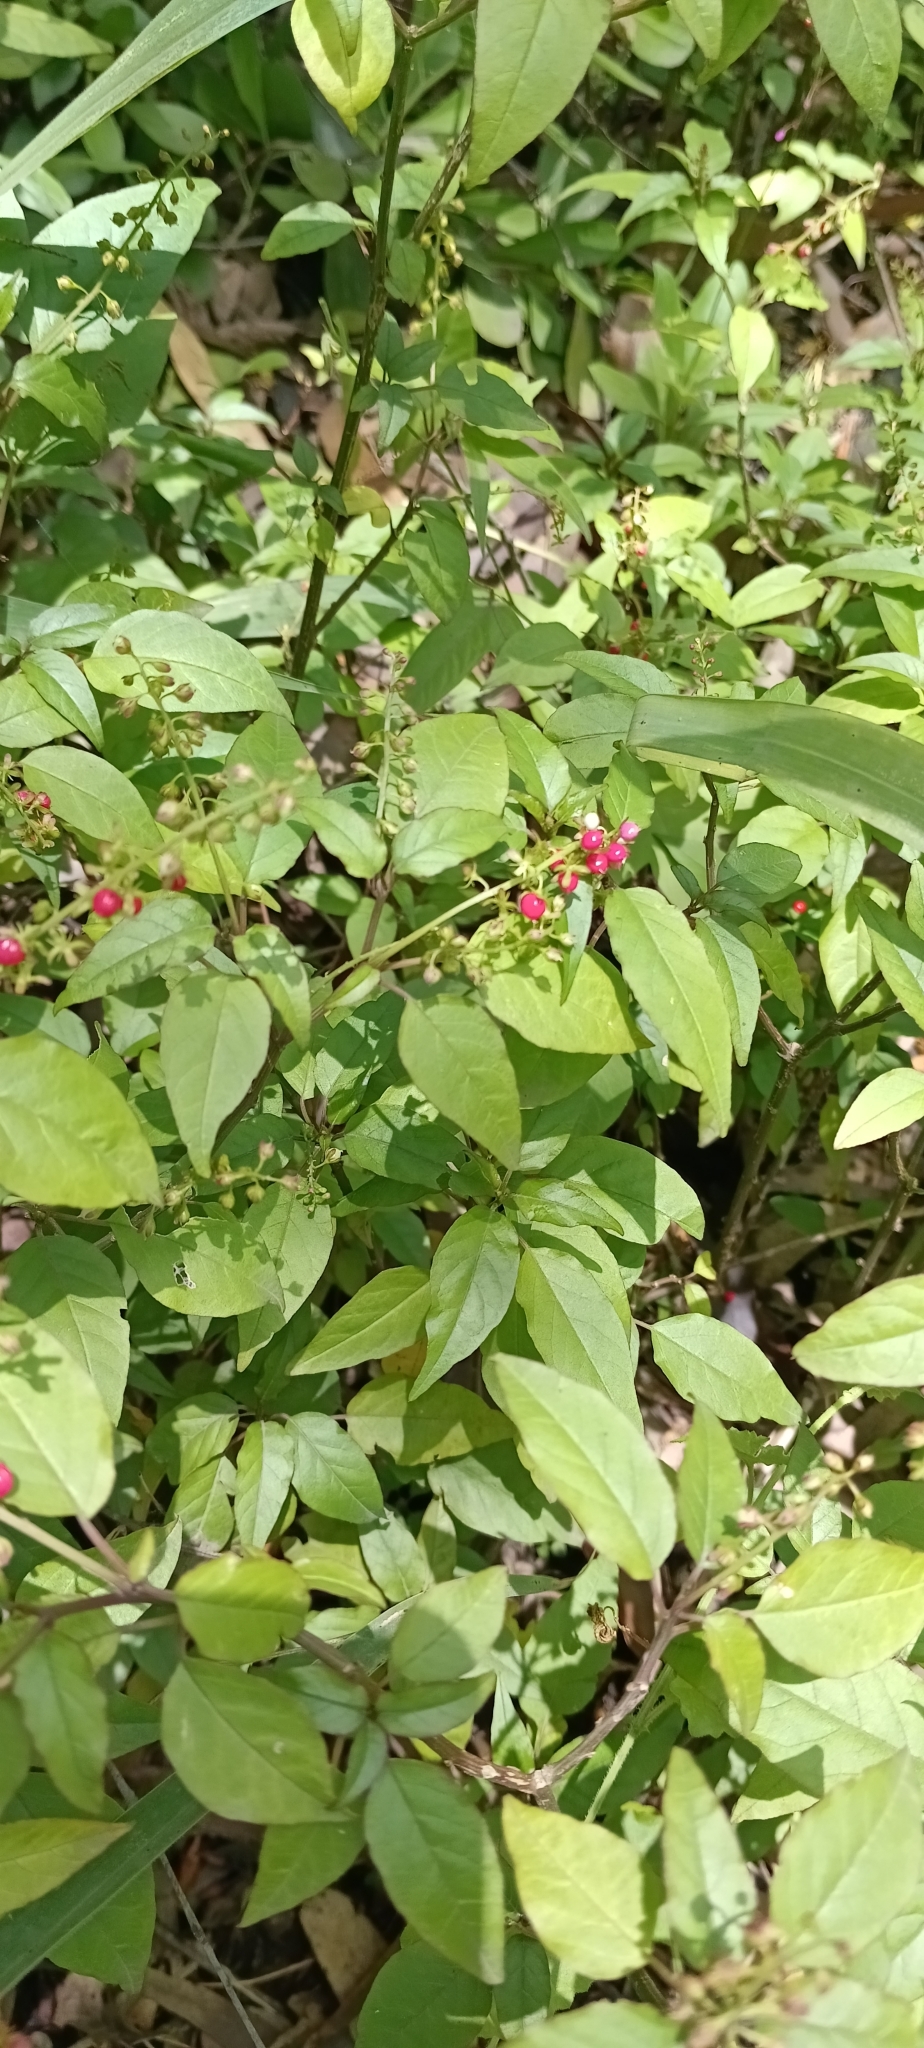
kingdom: Plantae
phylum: Tracheophyta
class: Magnoliopsida
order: Caryophyllales
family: Phytolaccaceae
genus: Rivina
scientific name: Rivina humilis
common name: Rougeplant
